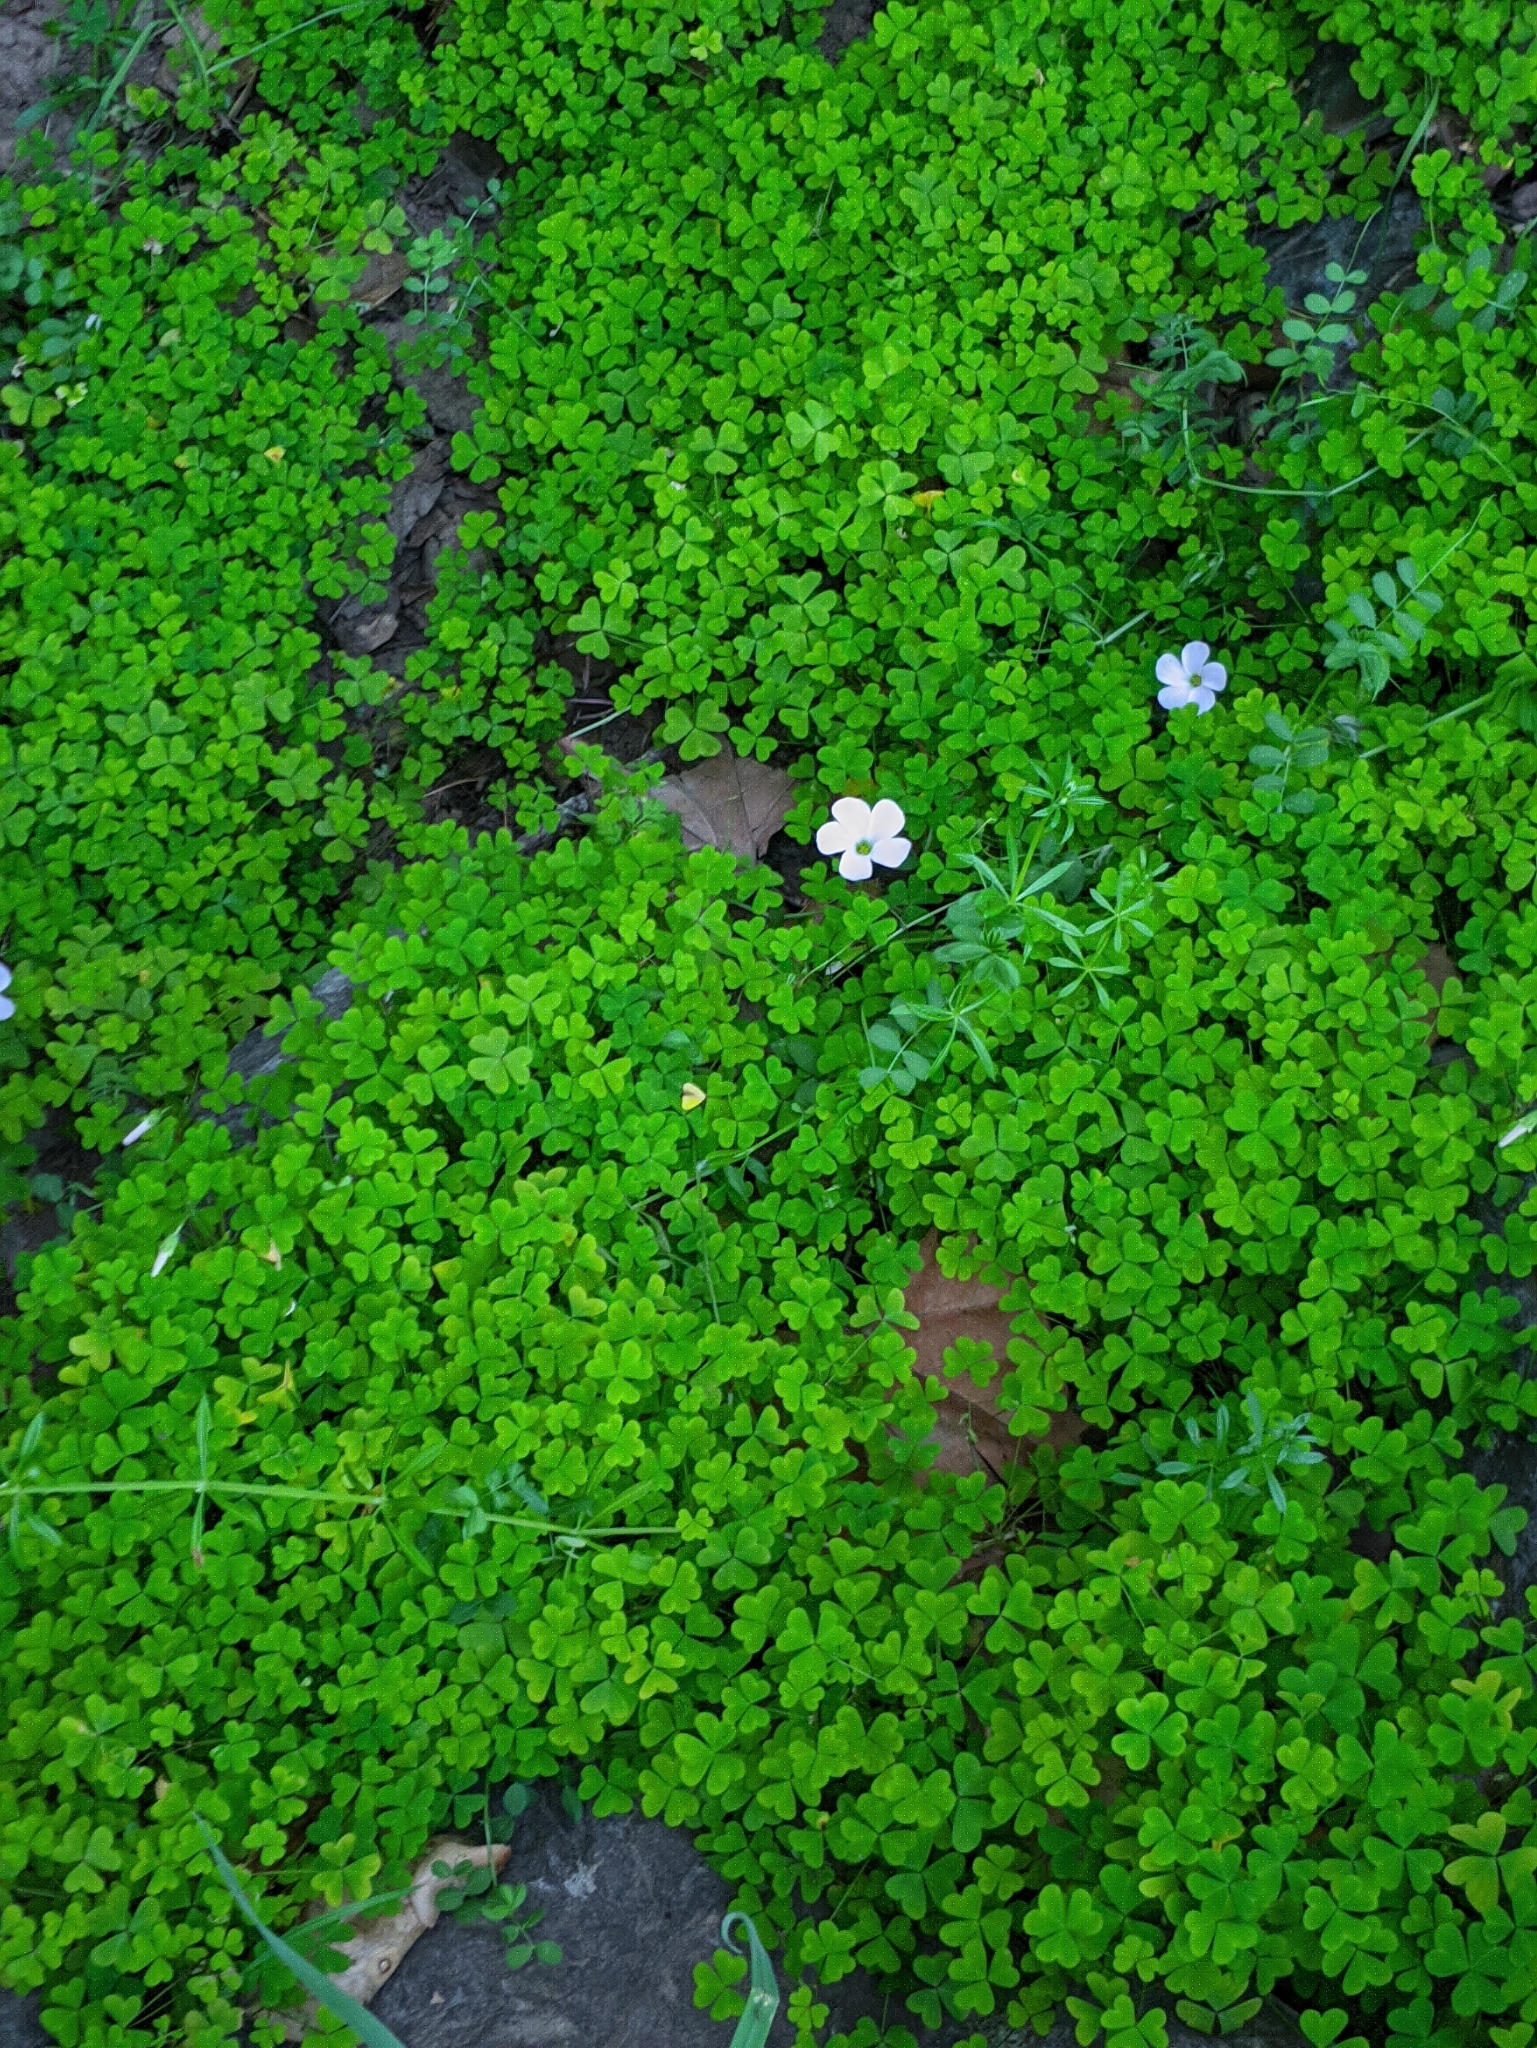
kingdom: Plantae
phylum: Tracheophyta
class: Magnoliopsida
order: Oxalidales
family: Oxalidaceae
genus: Oxalis
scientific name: Oxalis incarnata
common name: Pale pink-sorrel
